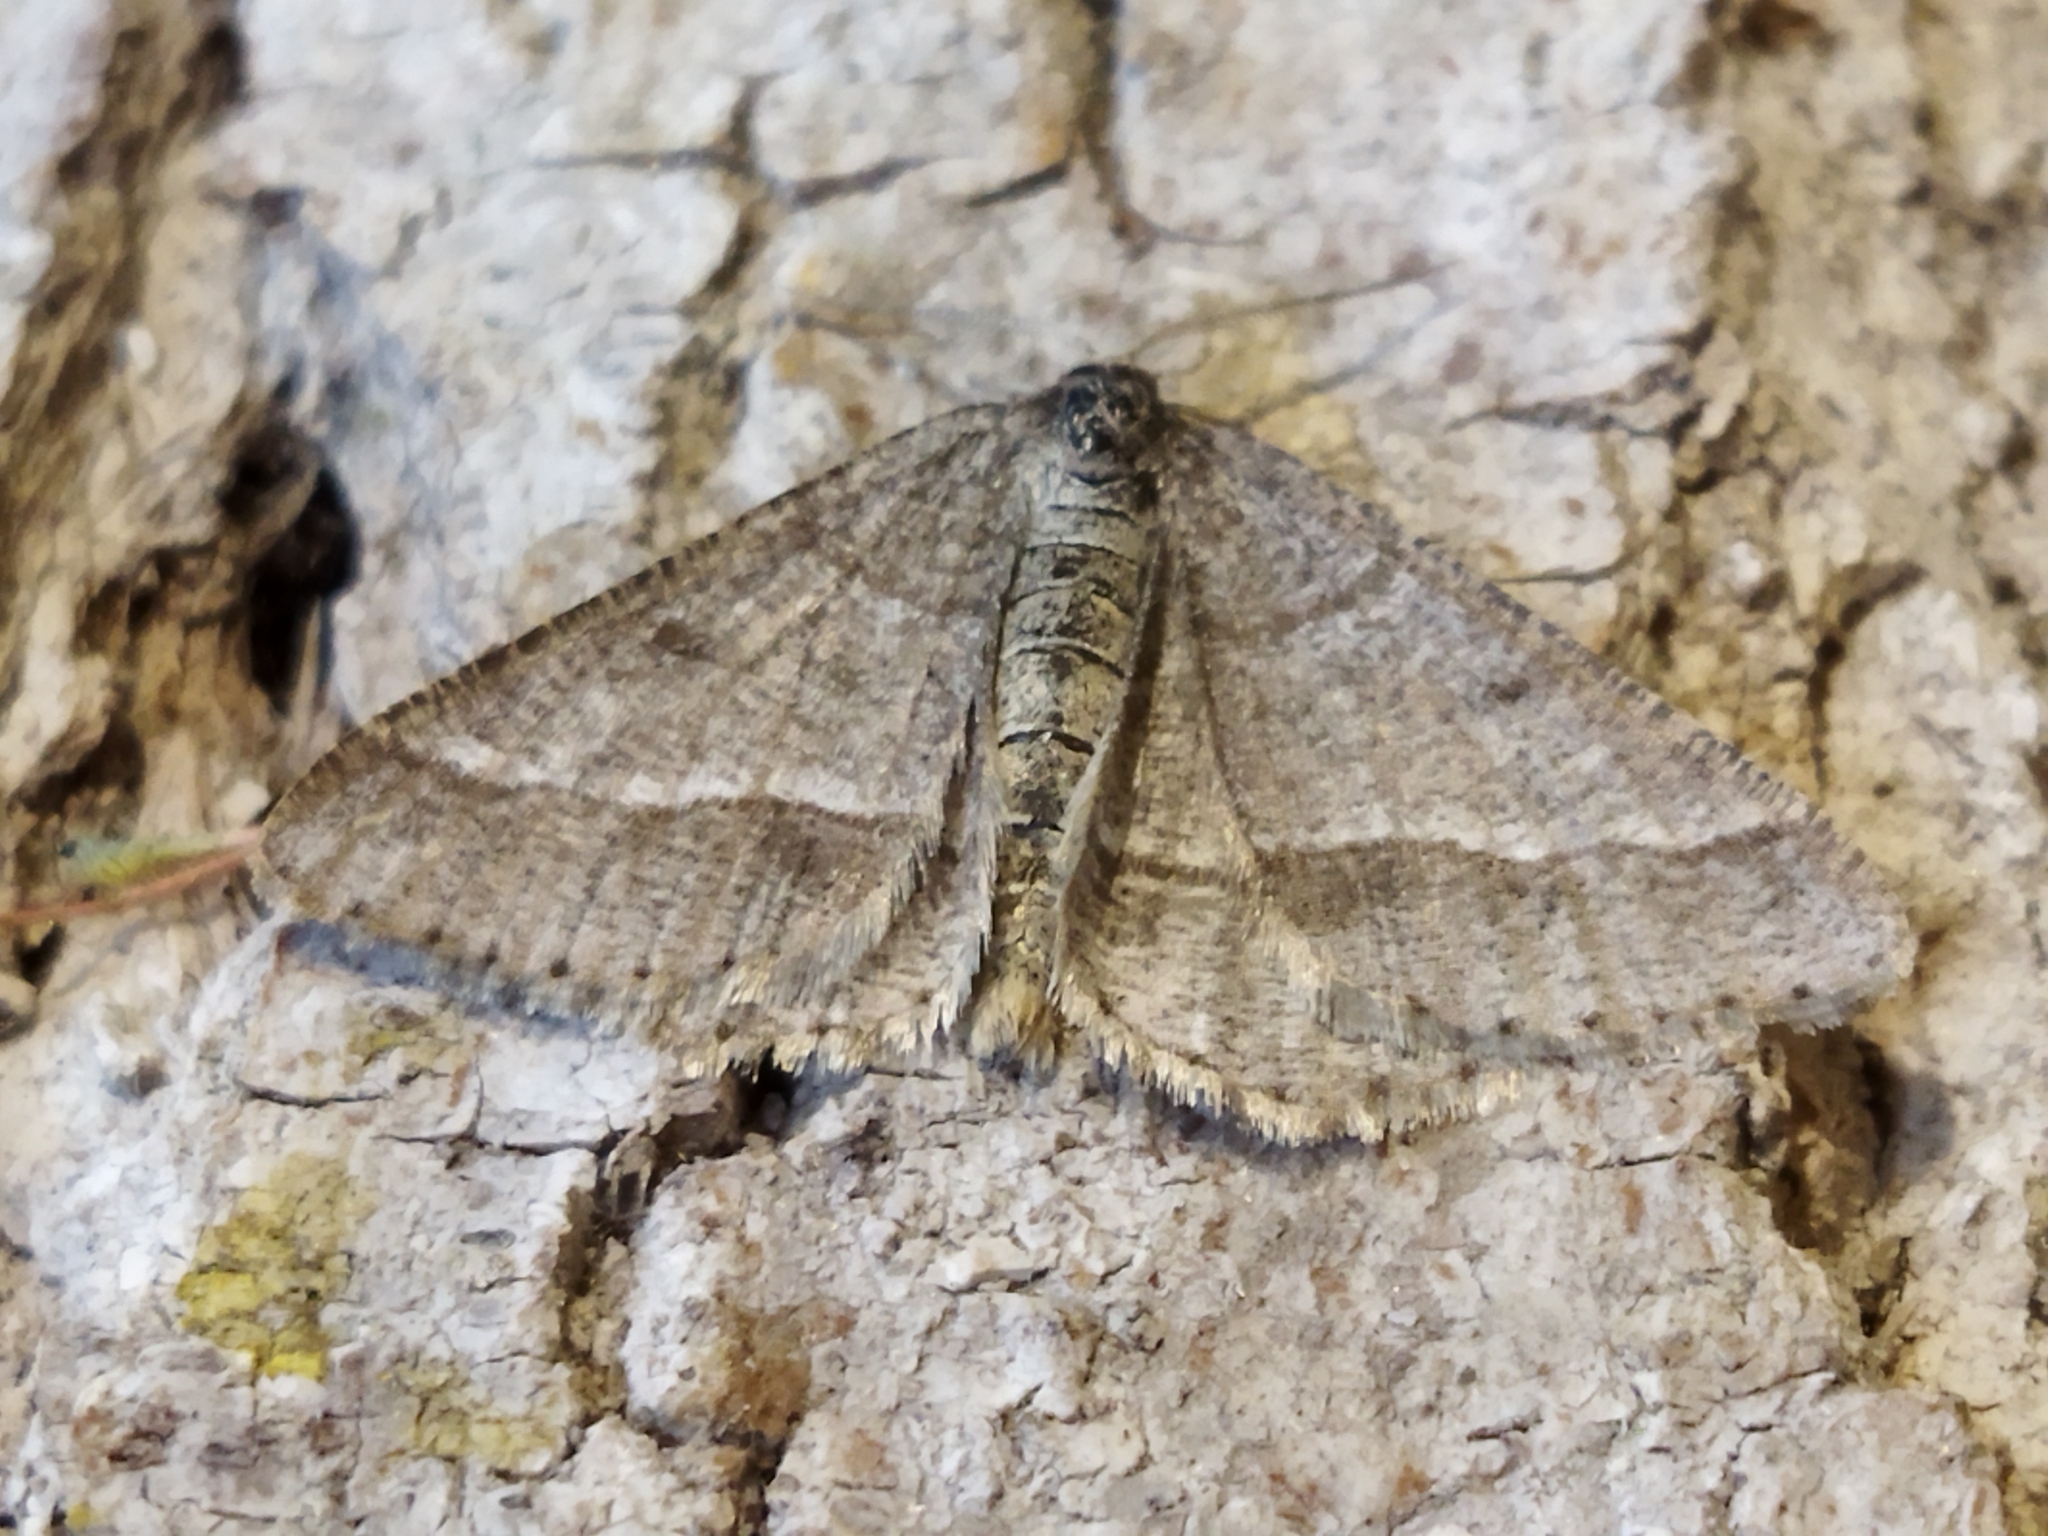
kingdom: Animalia
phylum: Arthropoda
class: Insecta
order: Lepidoptera
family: Geometridae
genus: Tephrina
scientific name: Tephrina murinaria
